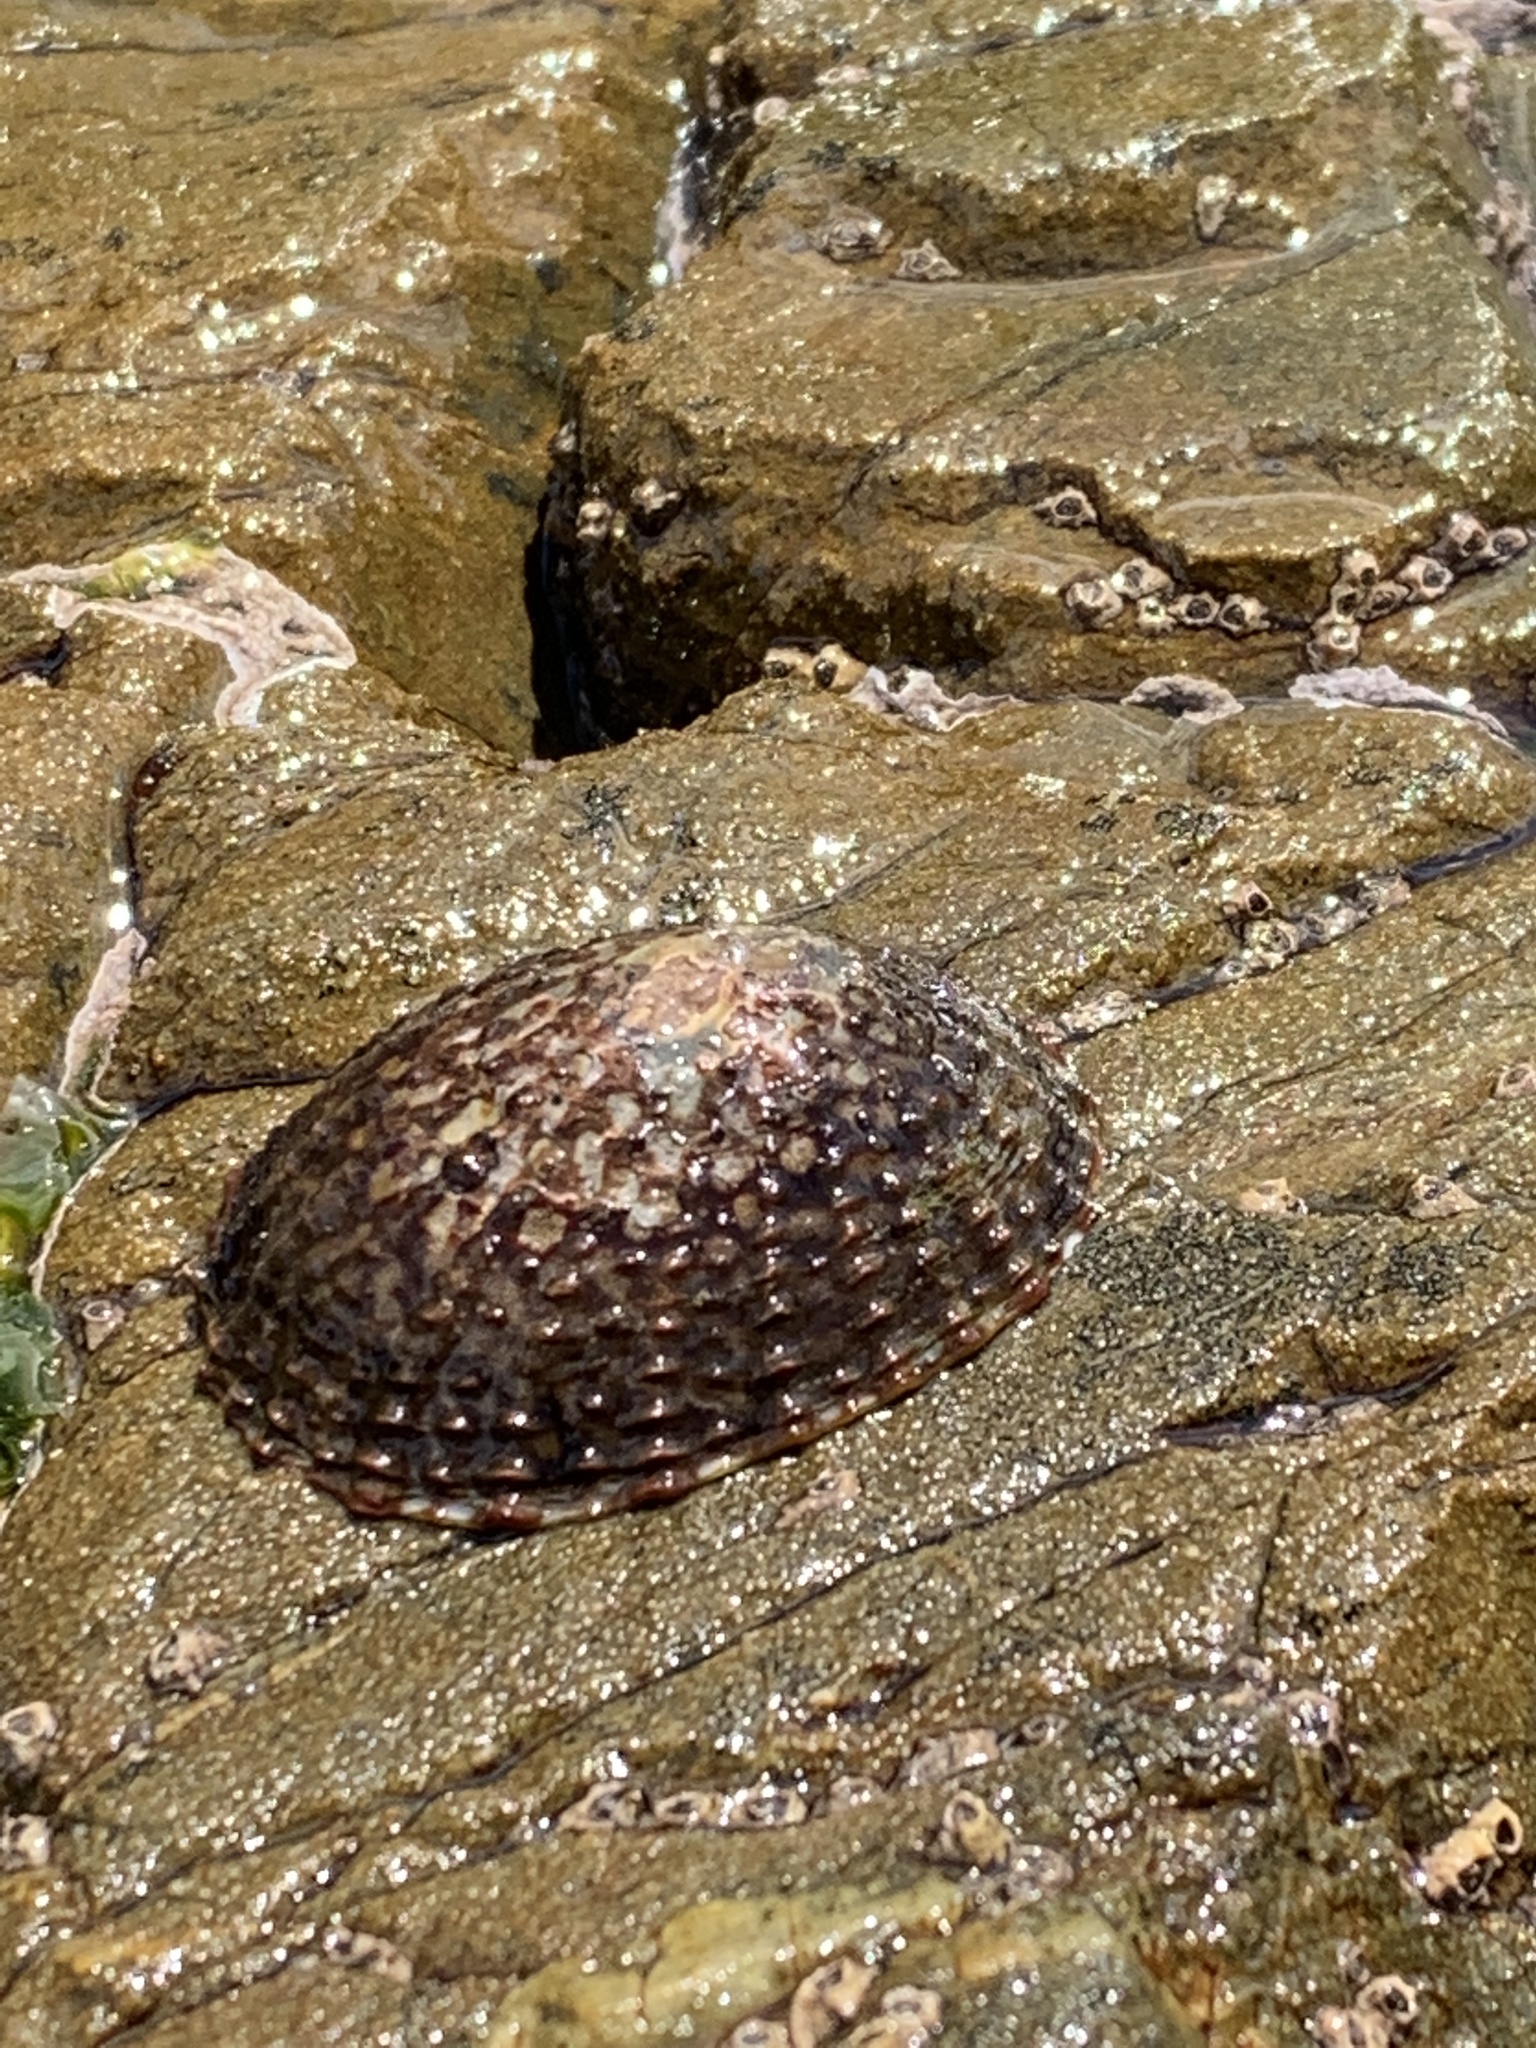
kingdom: Animalia
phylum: Mollusca
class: Gastropoda
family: Nacellidae
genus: Cellana
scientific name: Cellana denticulata
